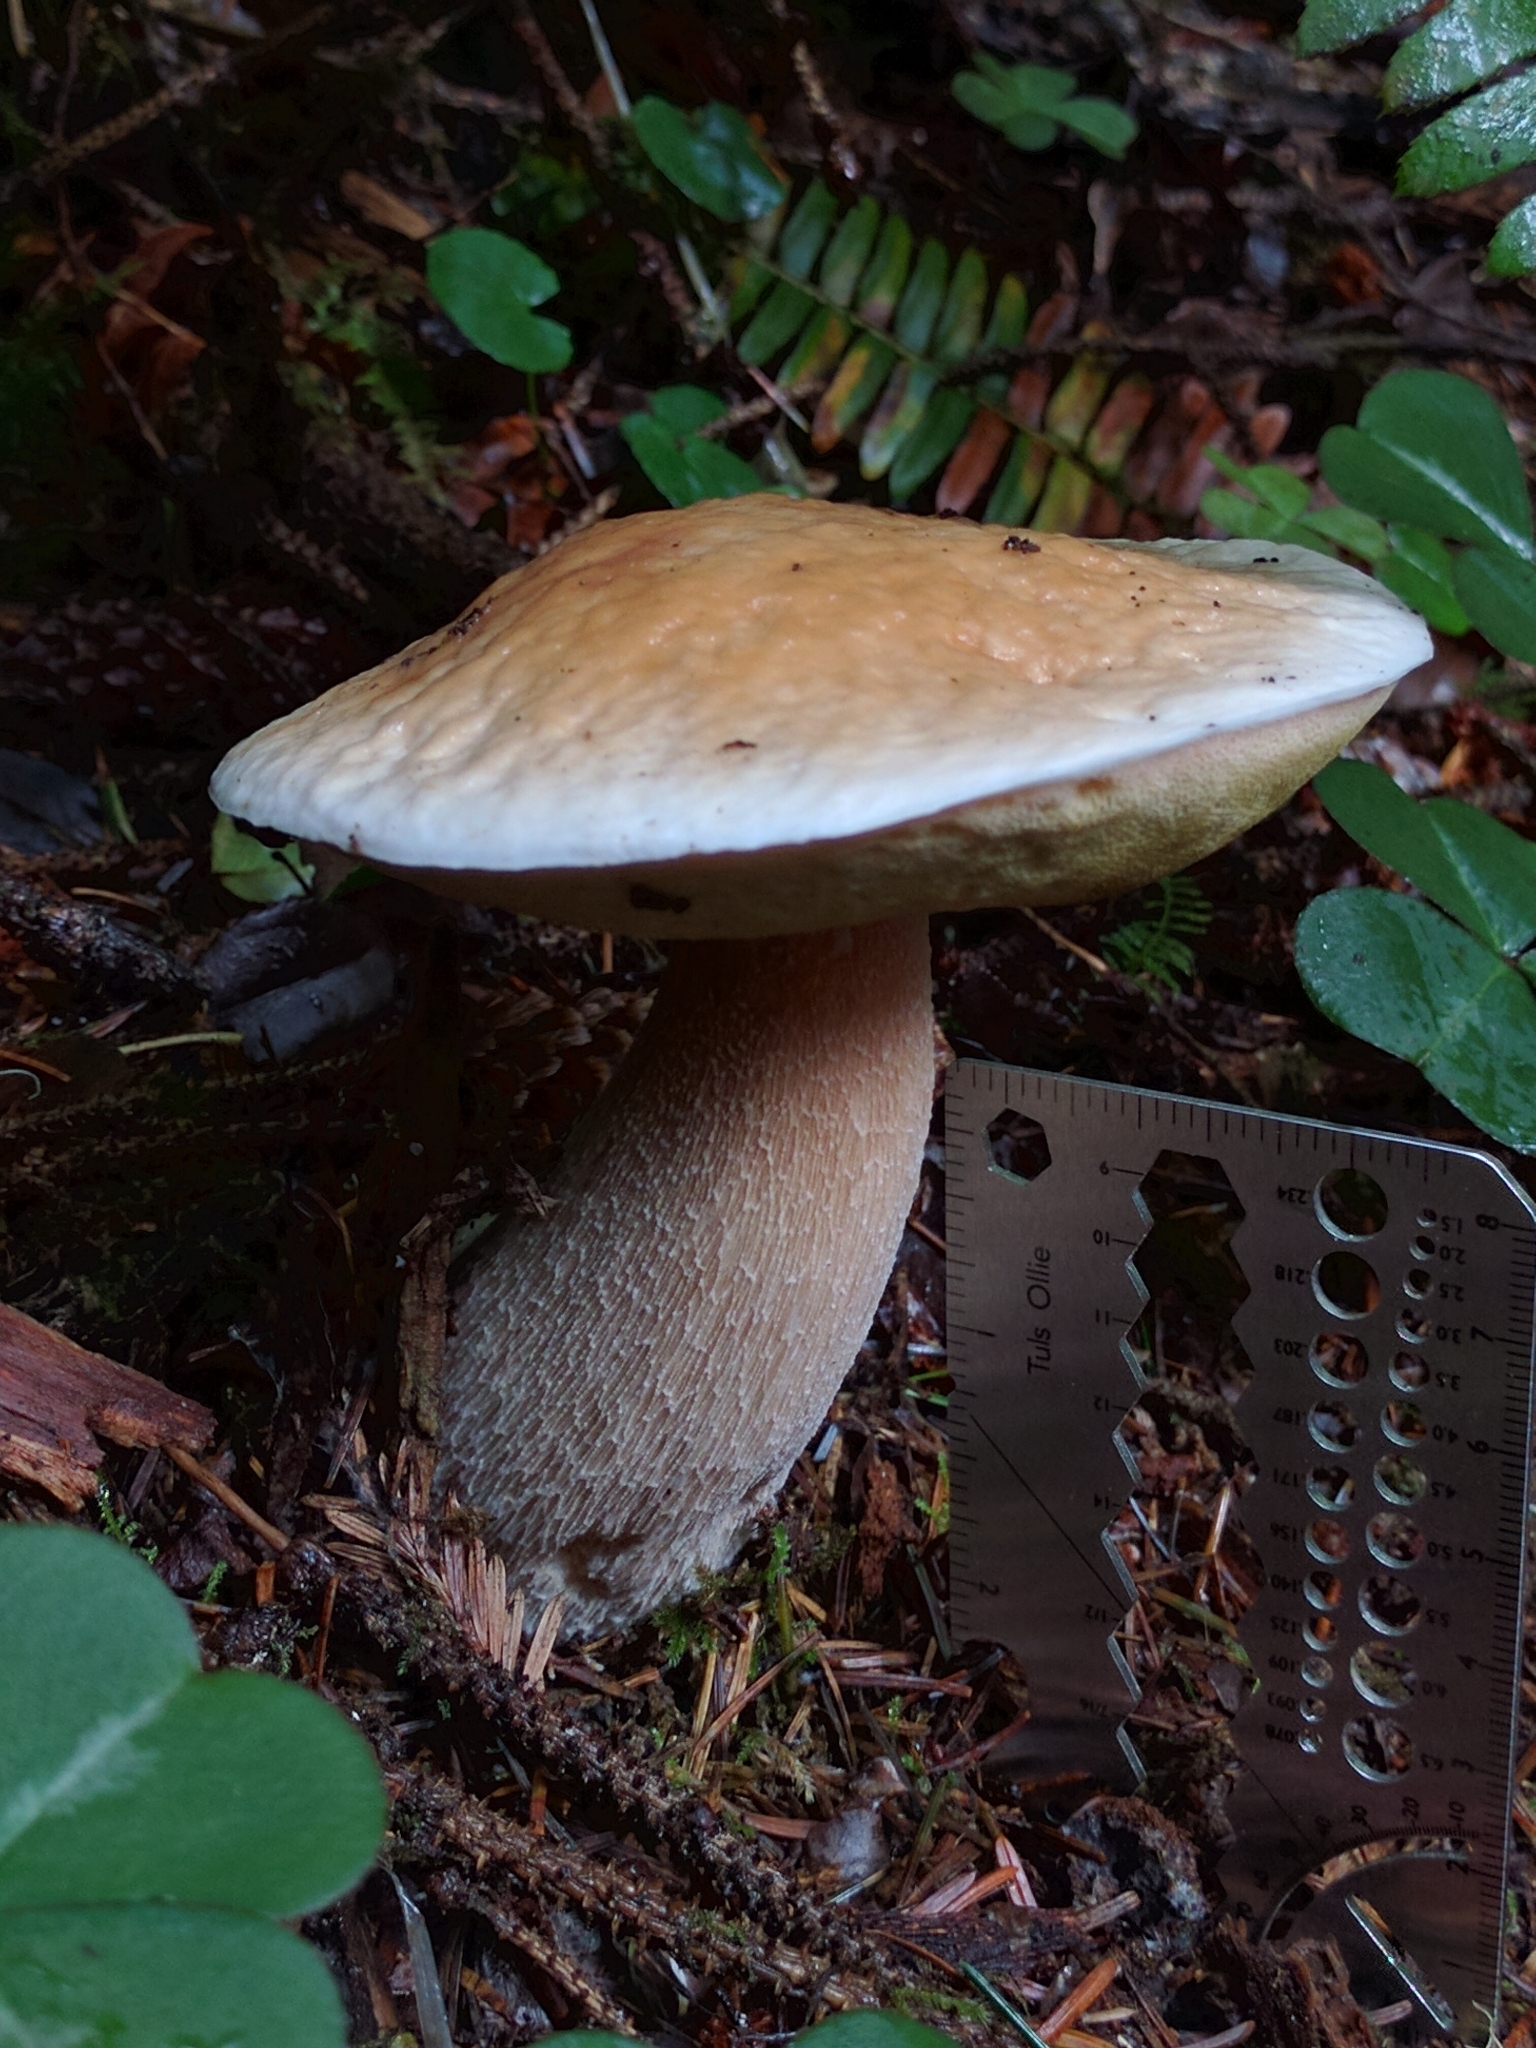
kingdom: Fungi
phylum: Basidiomycota
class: Agaricomycetes
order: Boletales
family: Boletaceae
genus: Boletus
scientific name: Boletus edulis
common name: Cep
